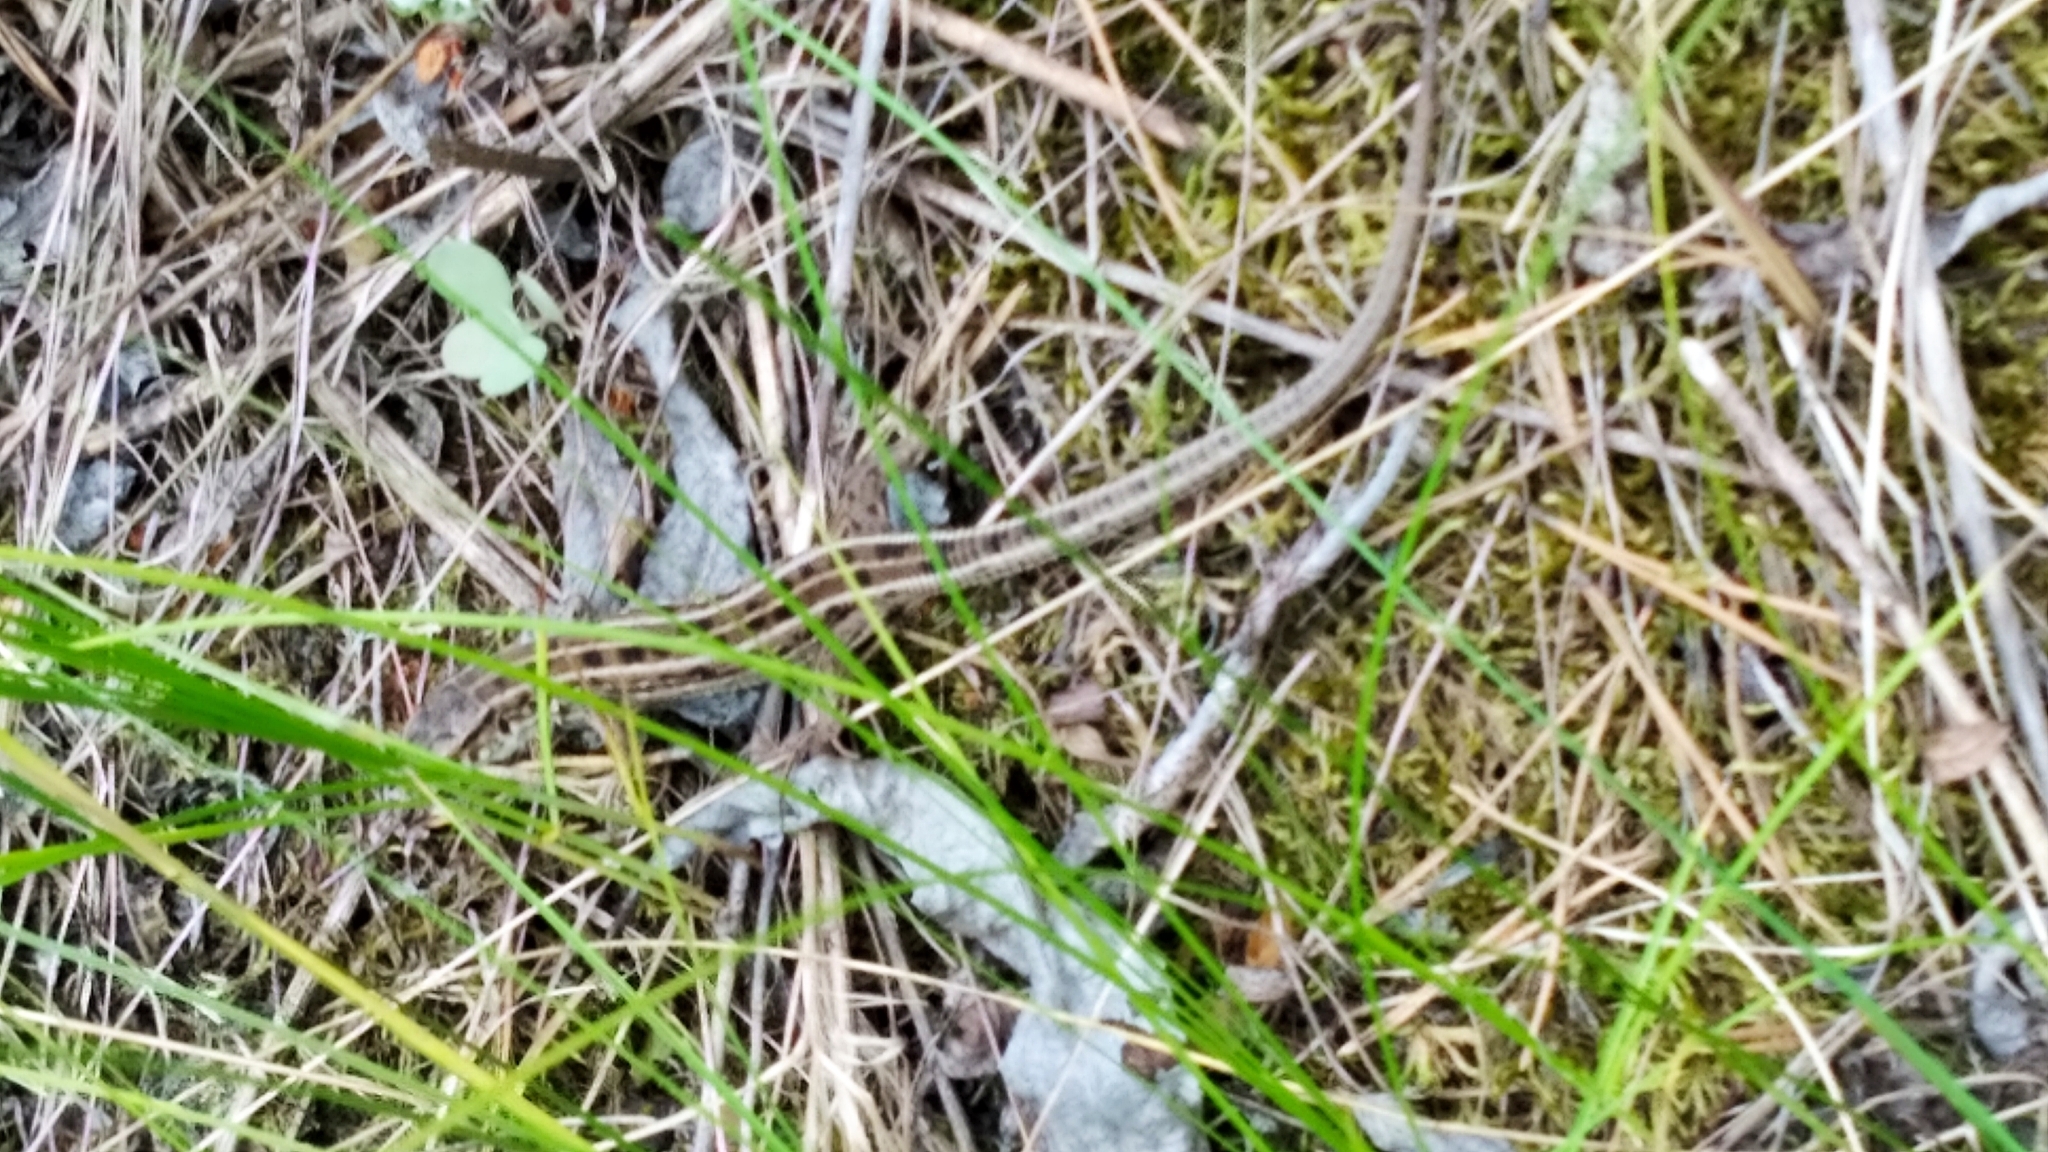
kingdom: Animalia
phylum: Chordata
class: Squamata
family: Lacertidae
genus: Lacerta
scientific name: Lacerta agilis
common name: Sand lizard
